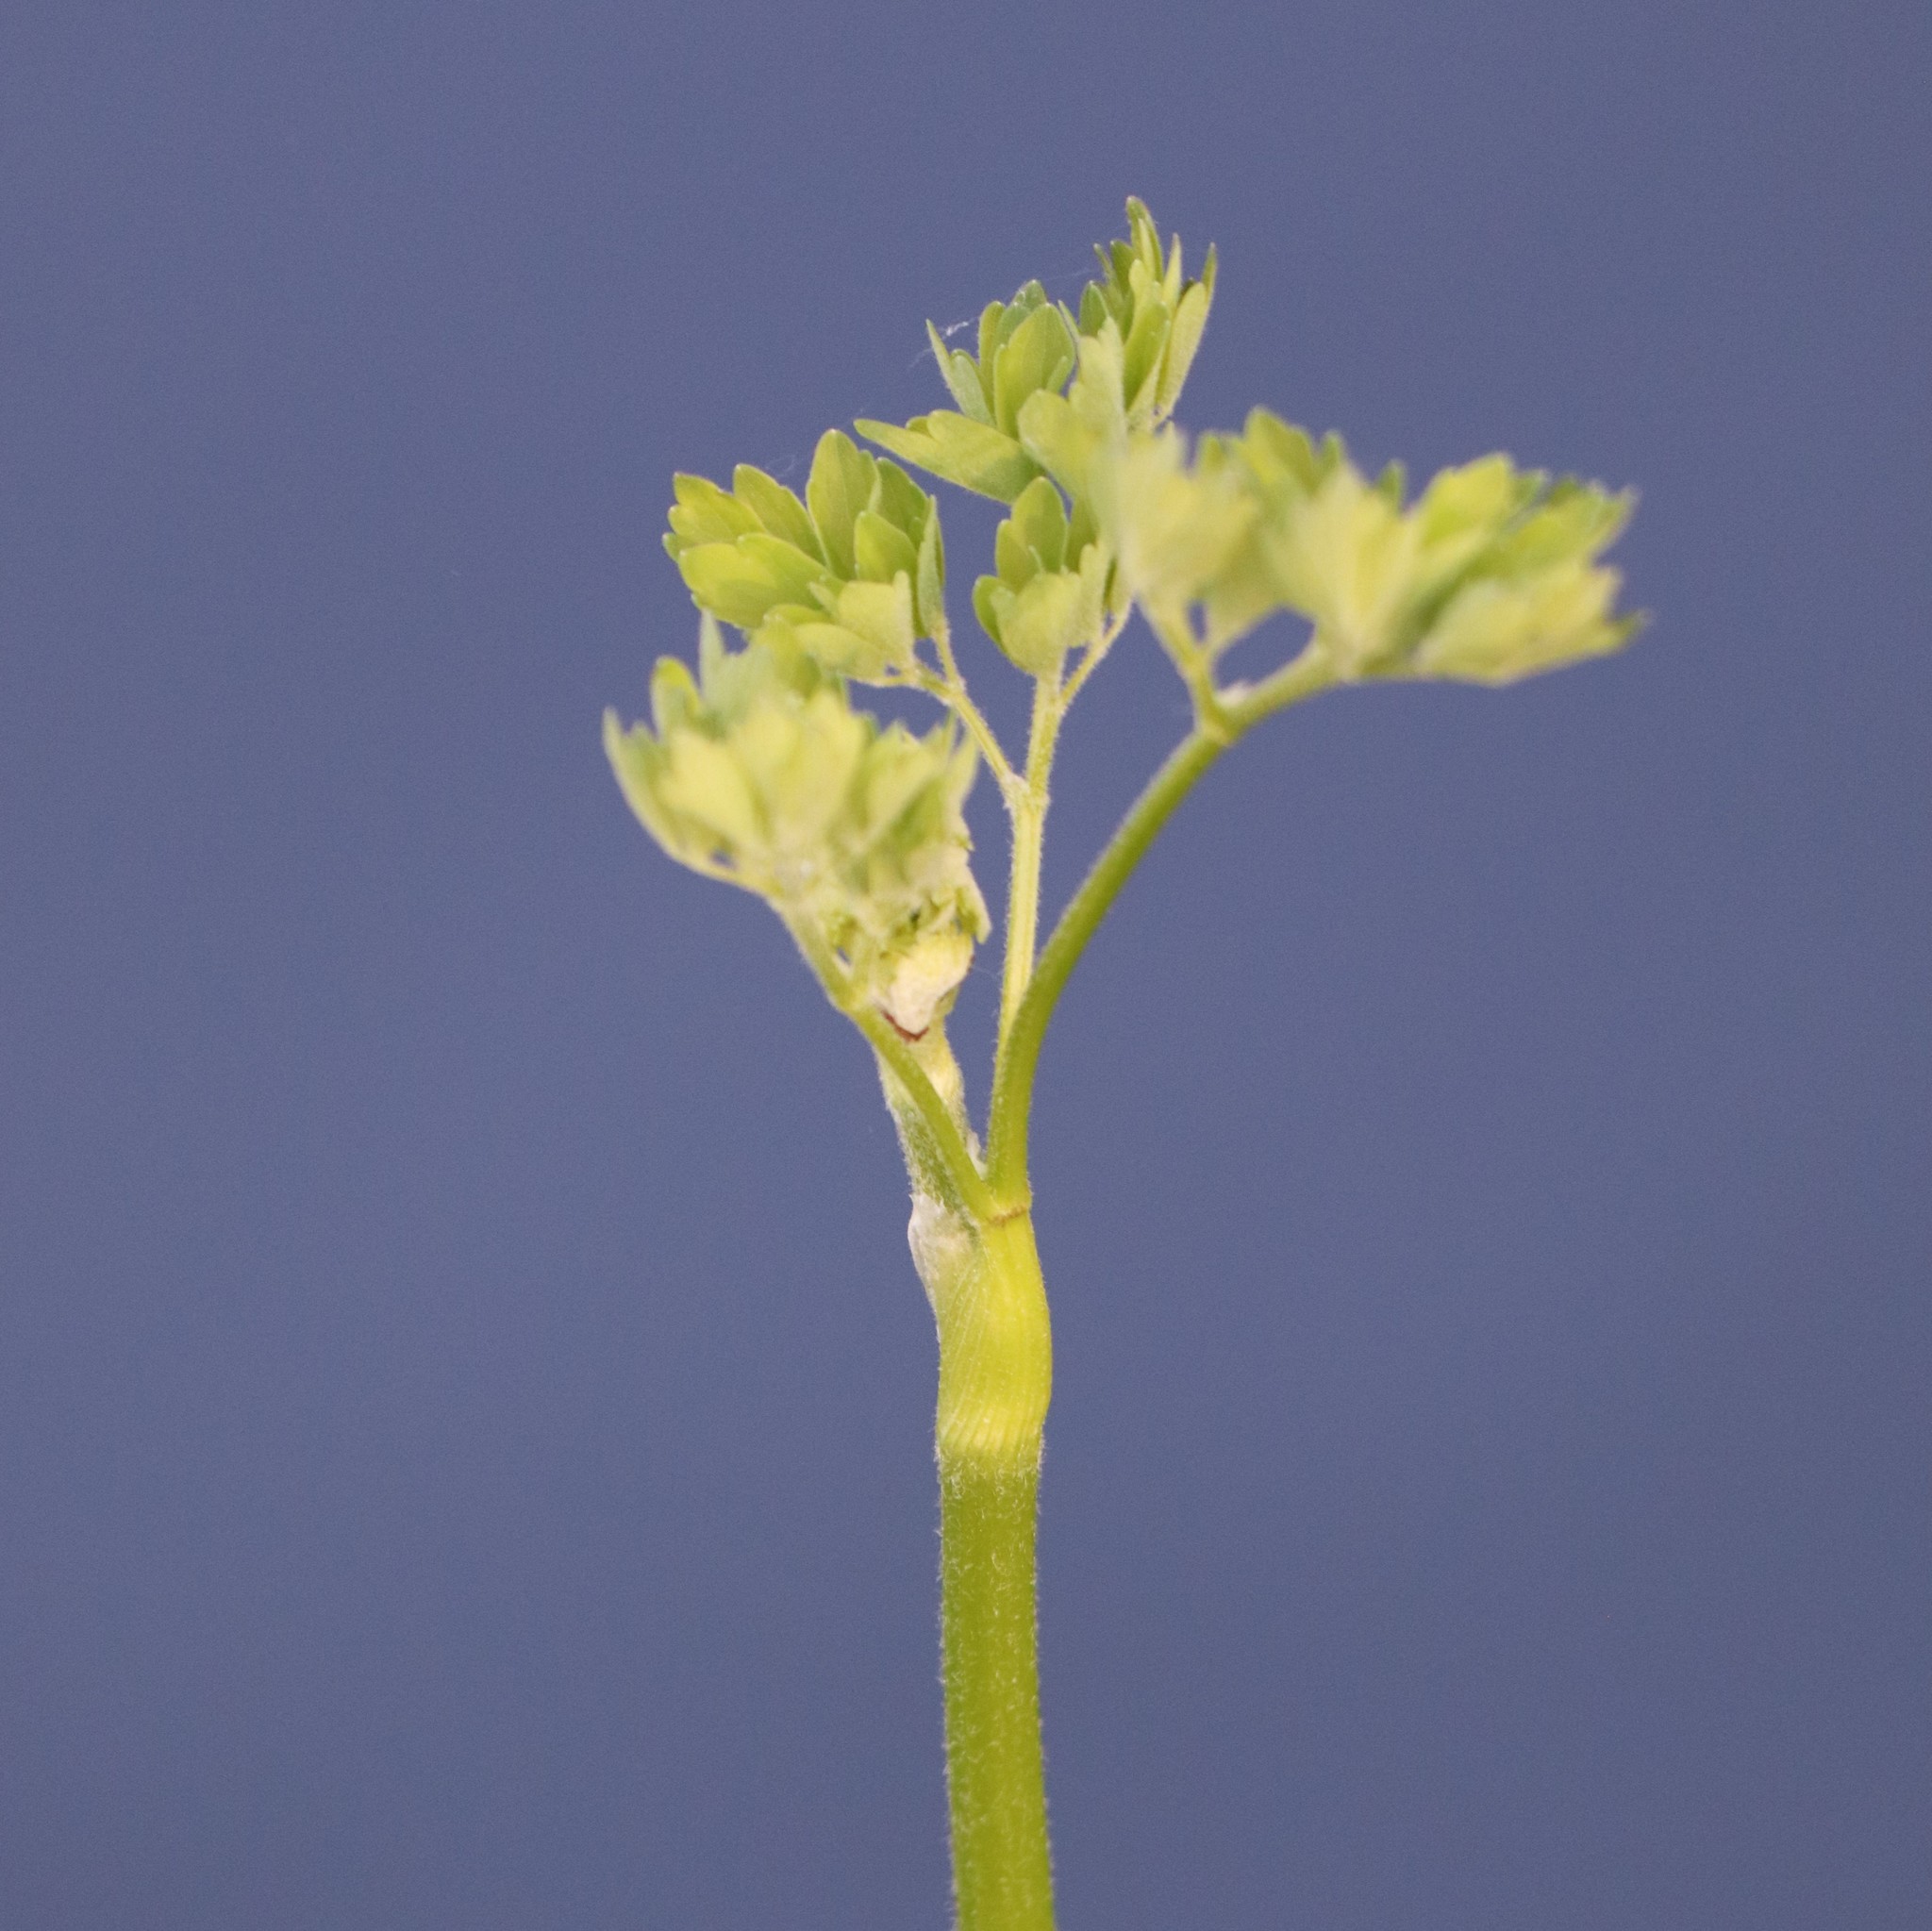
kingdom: Plantae
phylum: Tracheophyta
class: Magnoliopsida
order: Ranunculales
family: Ranunculaceae
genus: Thalictrum
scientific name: Thalictrum pubescens
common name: King-of-the-meadow
